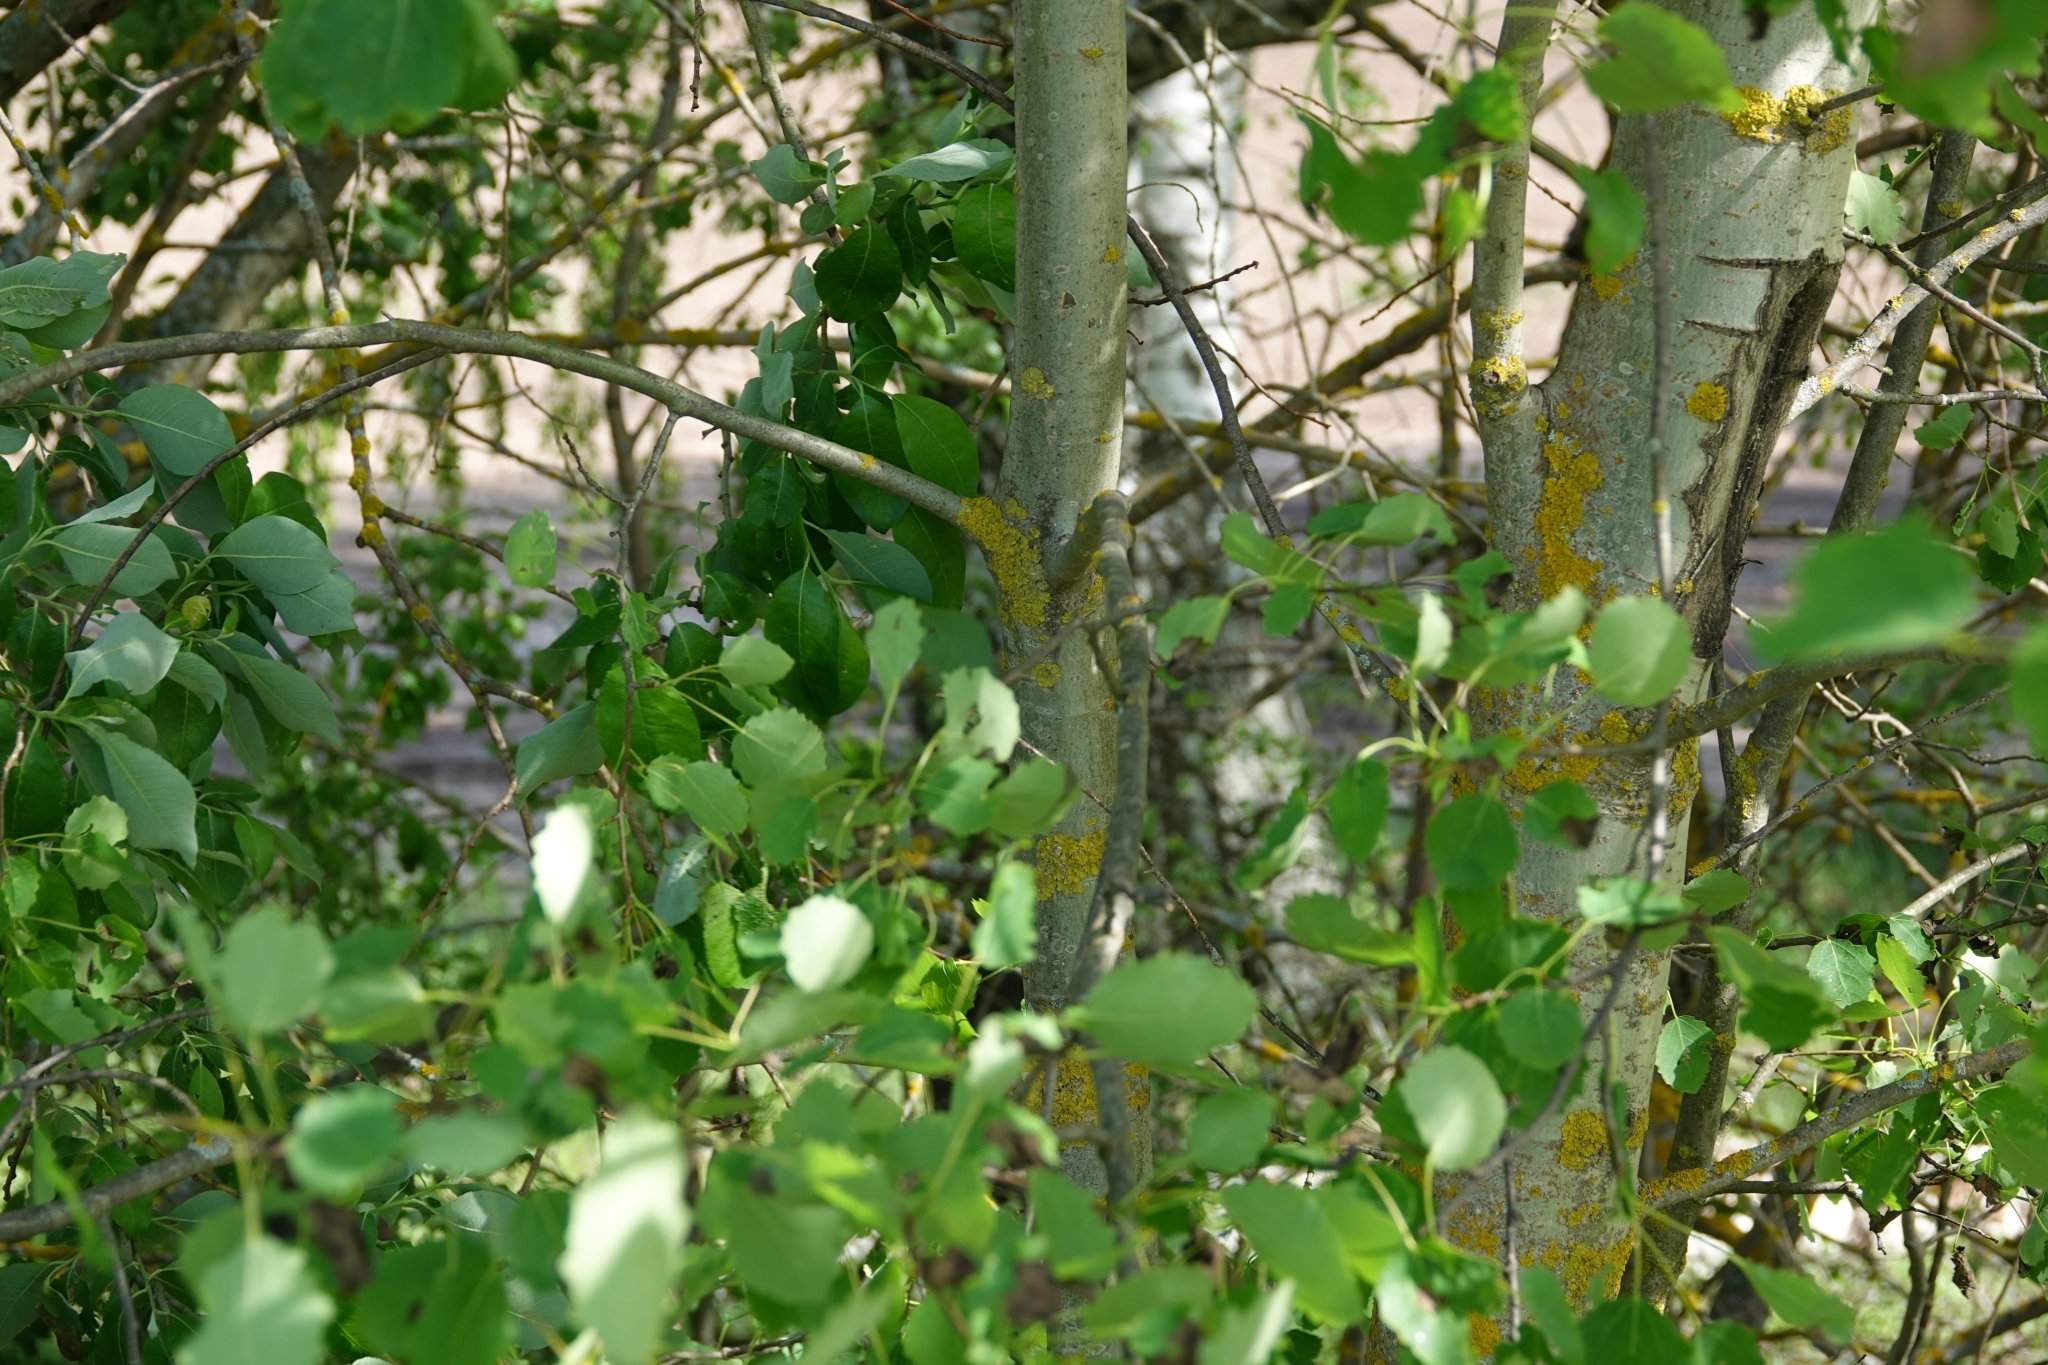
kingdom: Plantae
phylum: Tracheophyta
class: Magnoliopsida
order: Malpighiales
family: Salicaceae
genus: Populus
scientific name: Populus tremula
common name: European aspen
